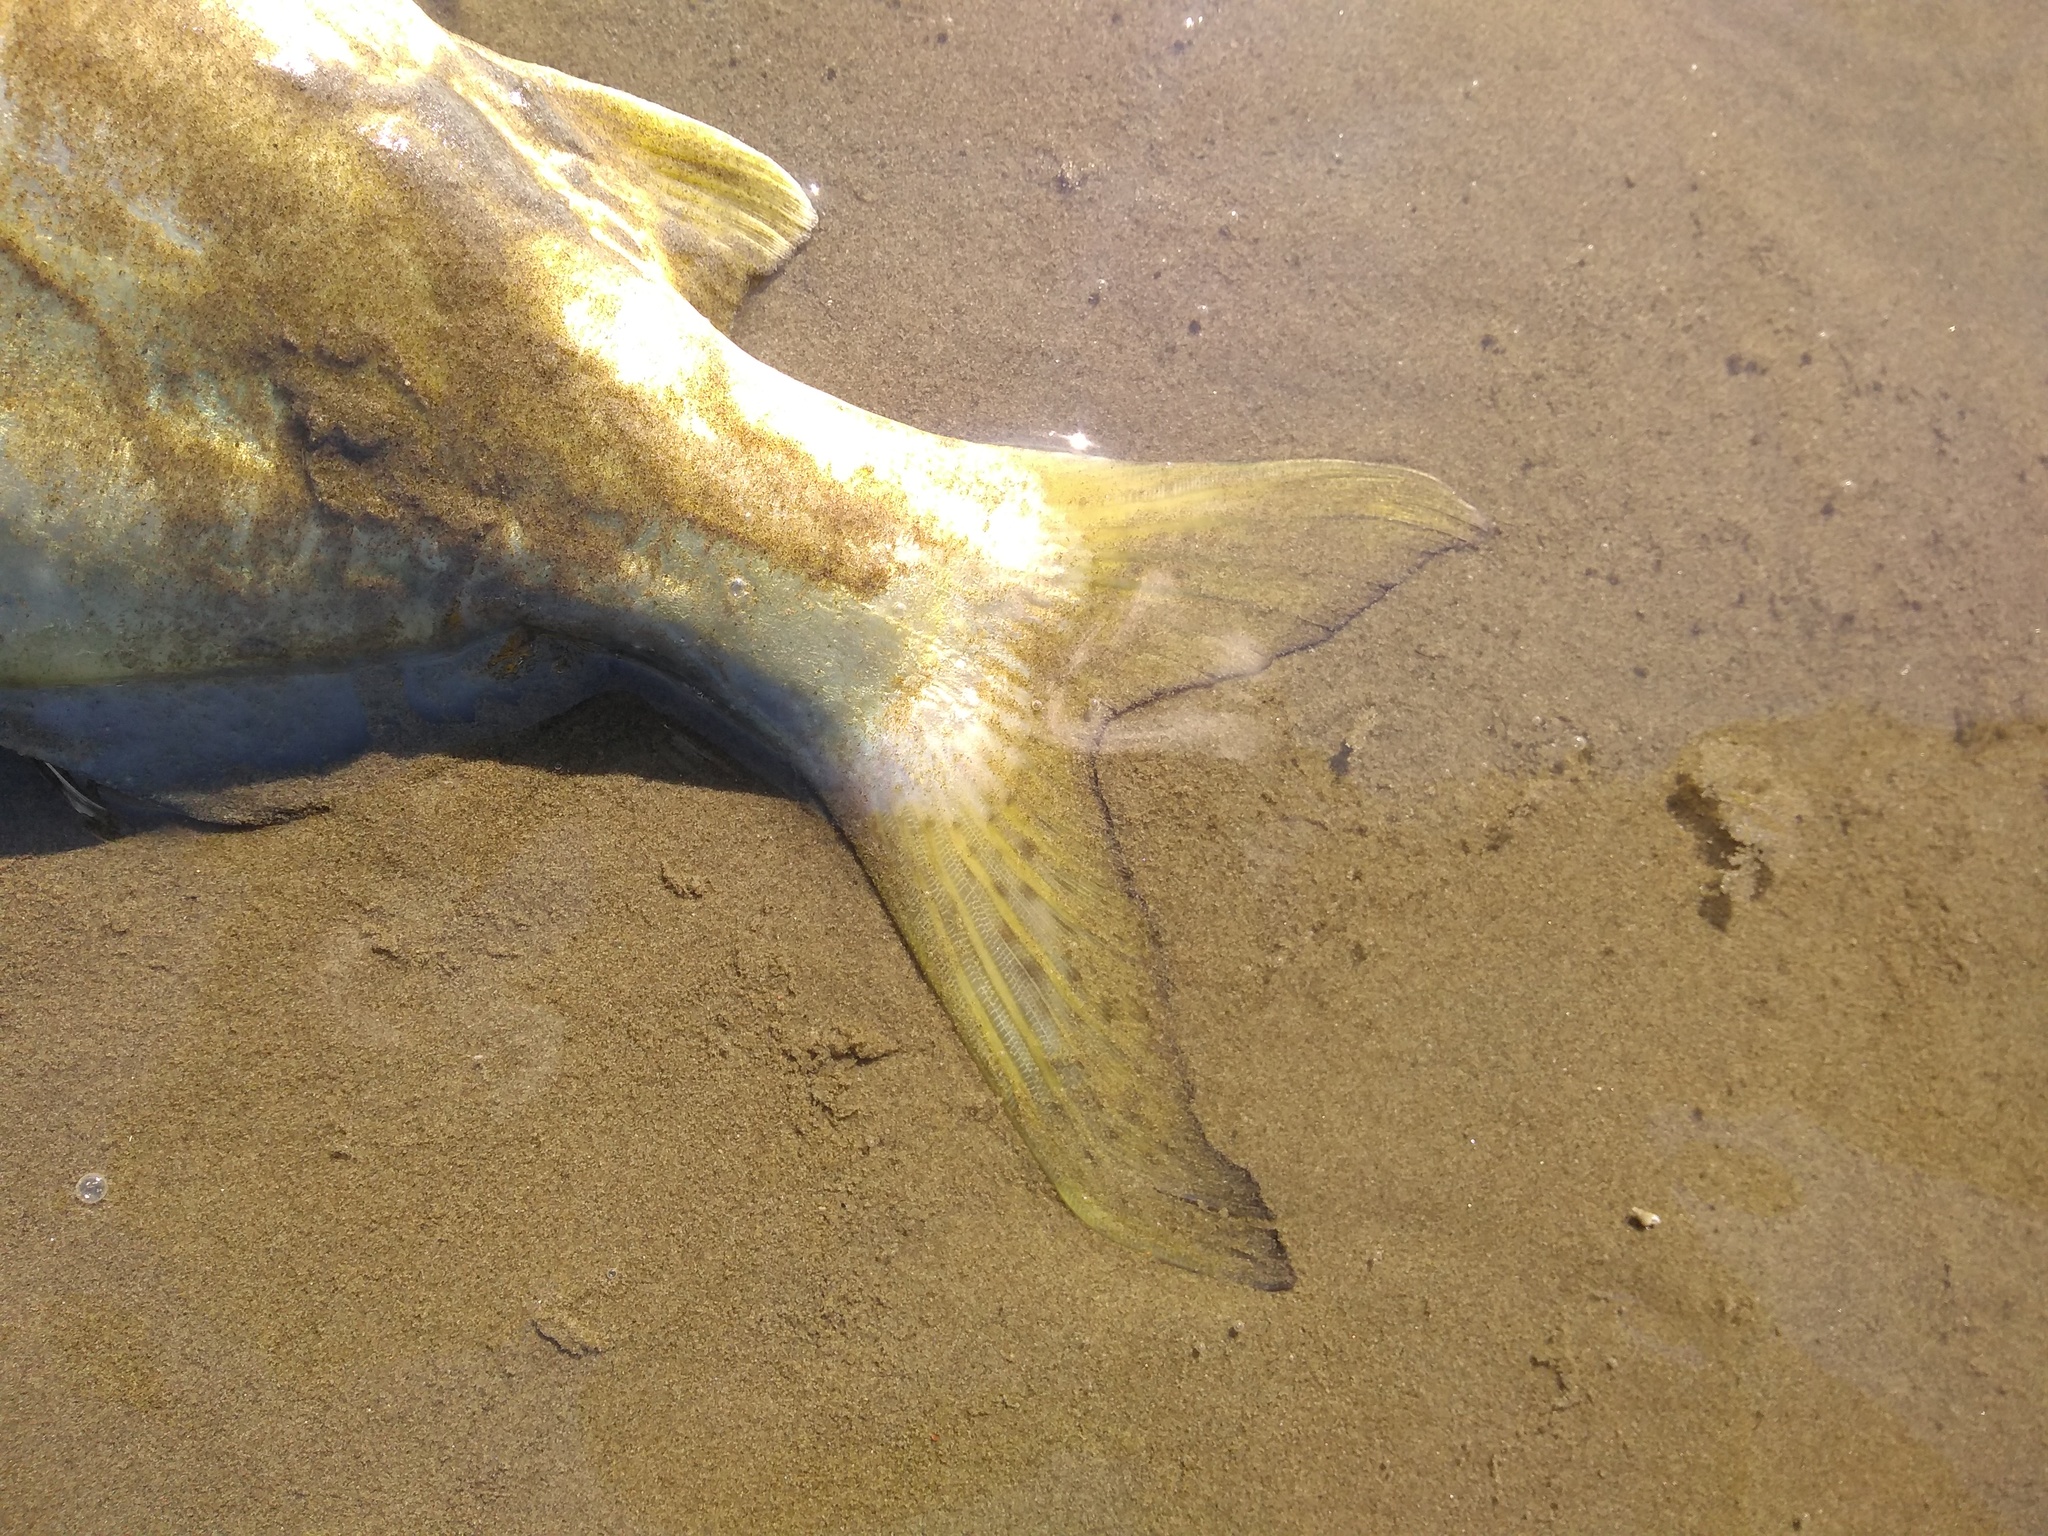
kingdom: Animalia
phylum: Chordata
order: Siluriformes
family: Pimelodidae
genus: Pimelodus
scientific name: Pimelodus maculatus
